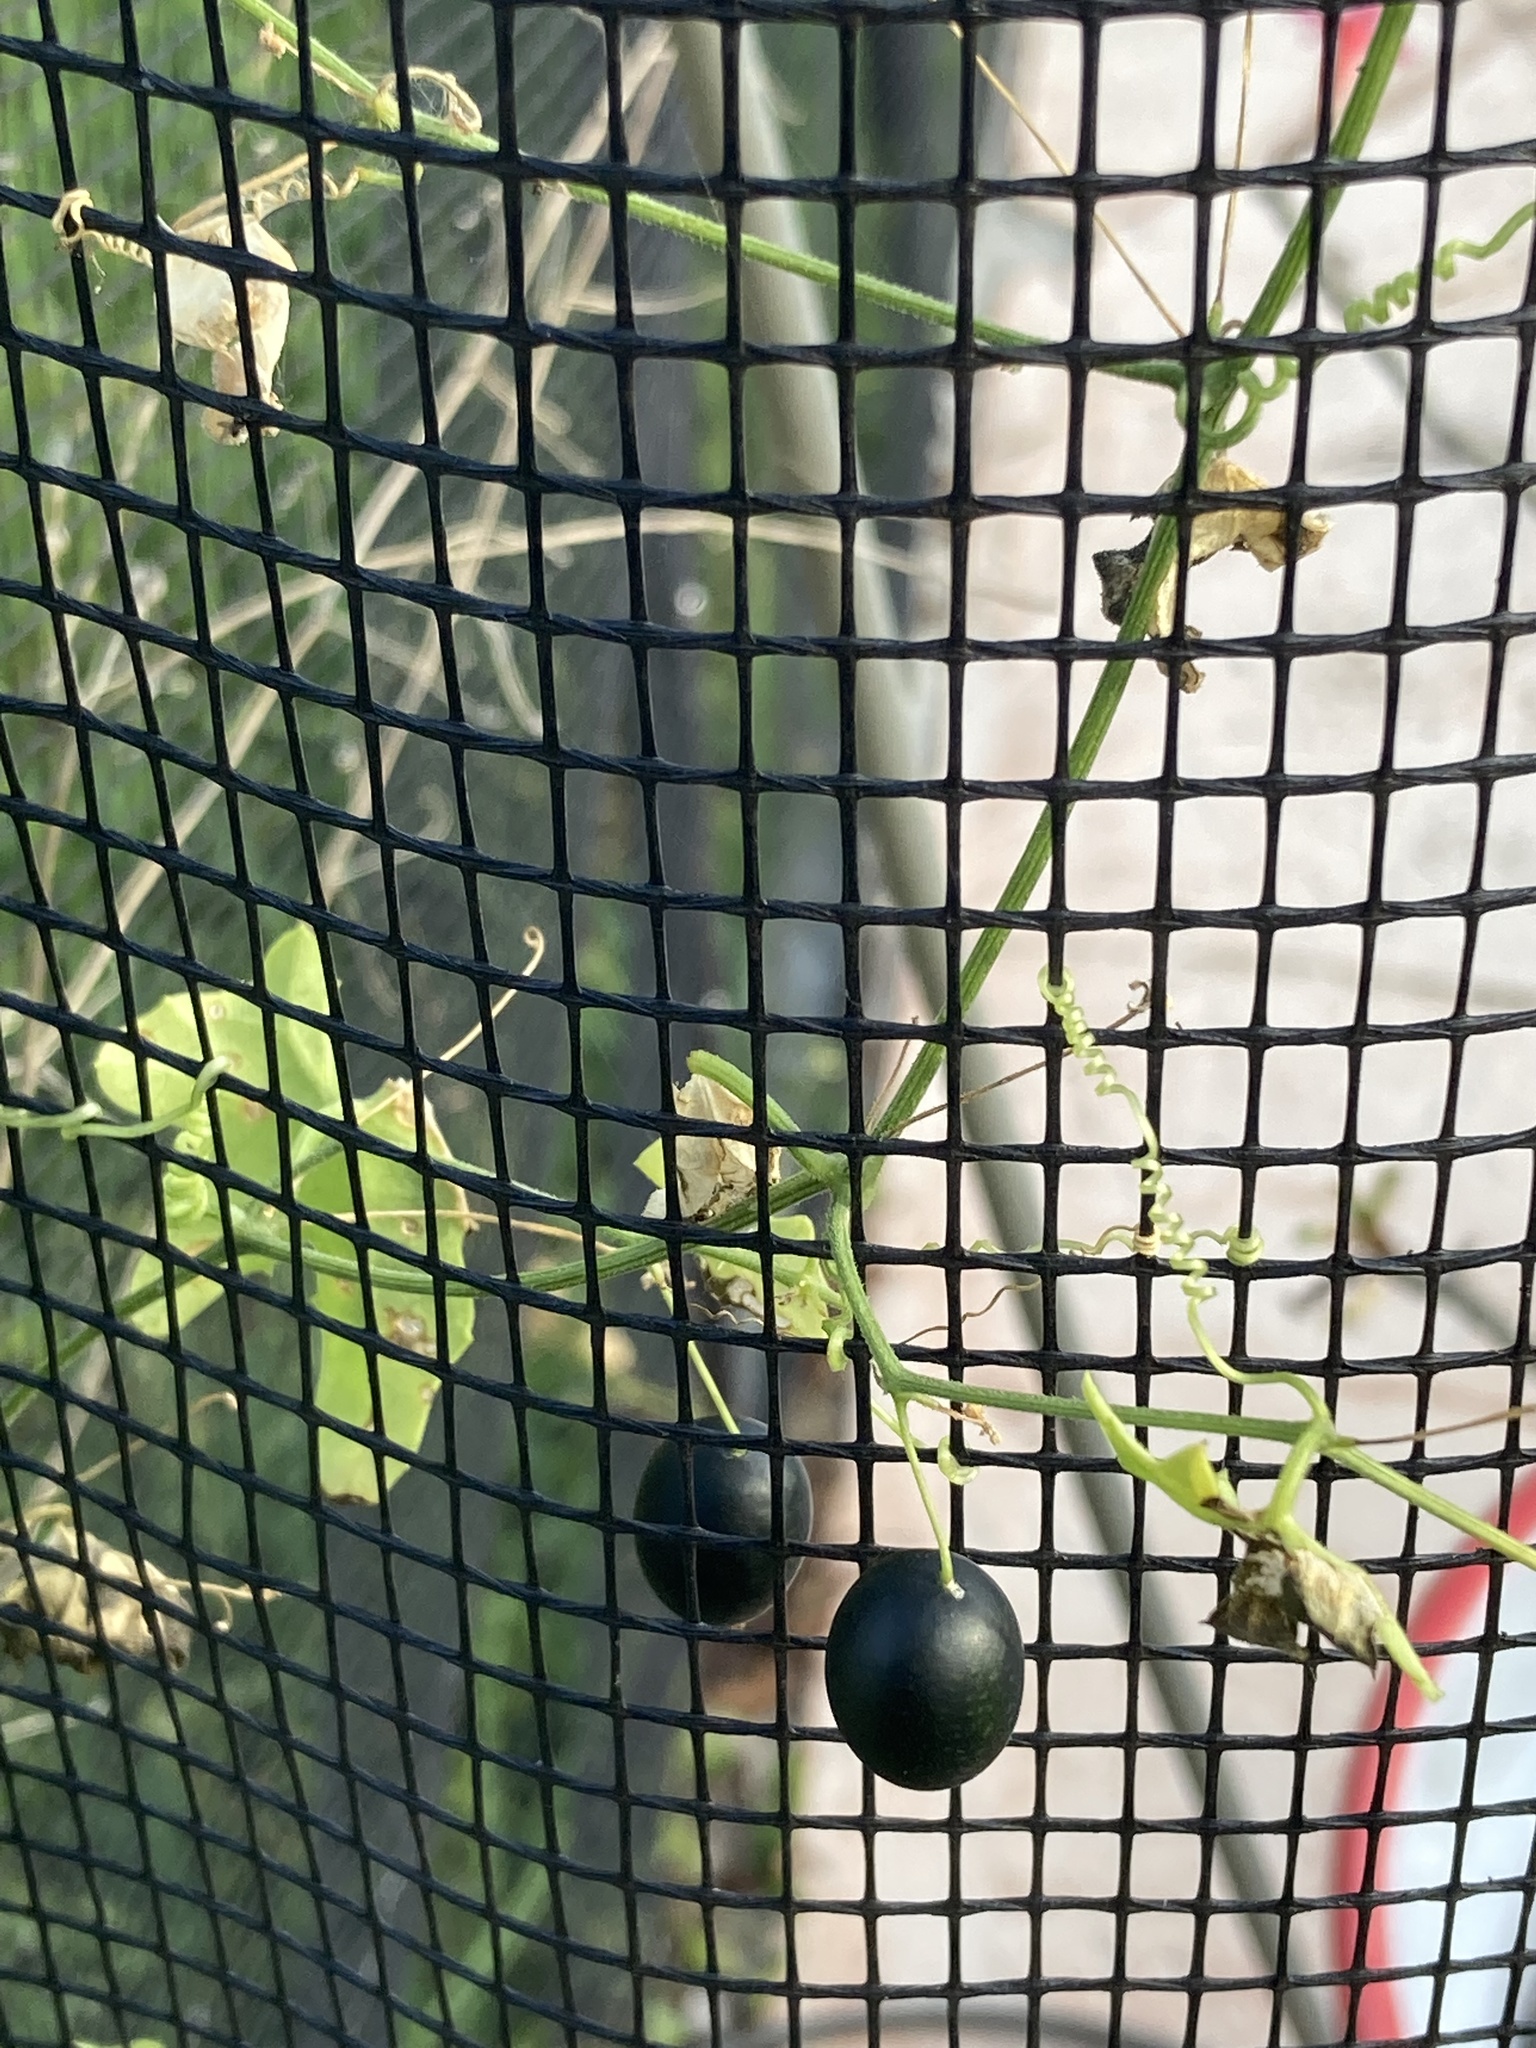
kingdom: Plantae
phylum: Tracheophyta
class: Magnoliopsida
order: Cucurbitales
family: Cucurbitaceae
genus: Melothria
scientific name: Melothria pendula
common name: Creeping-cucumber
